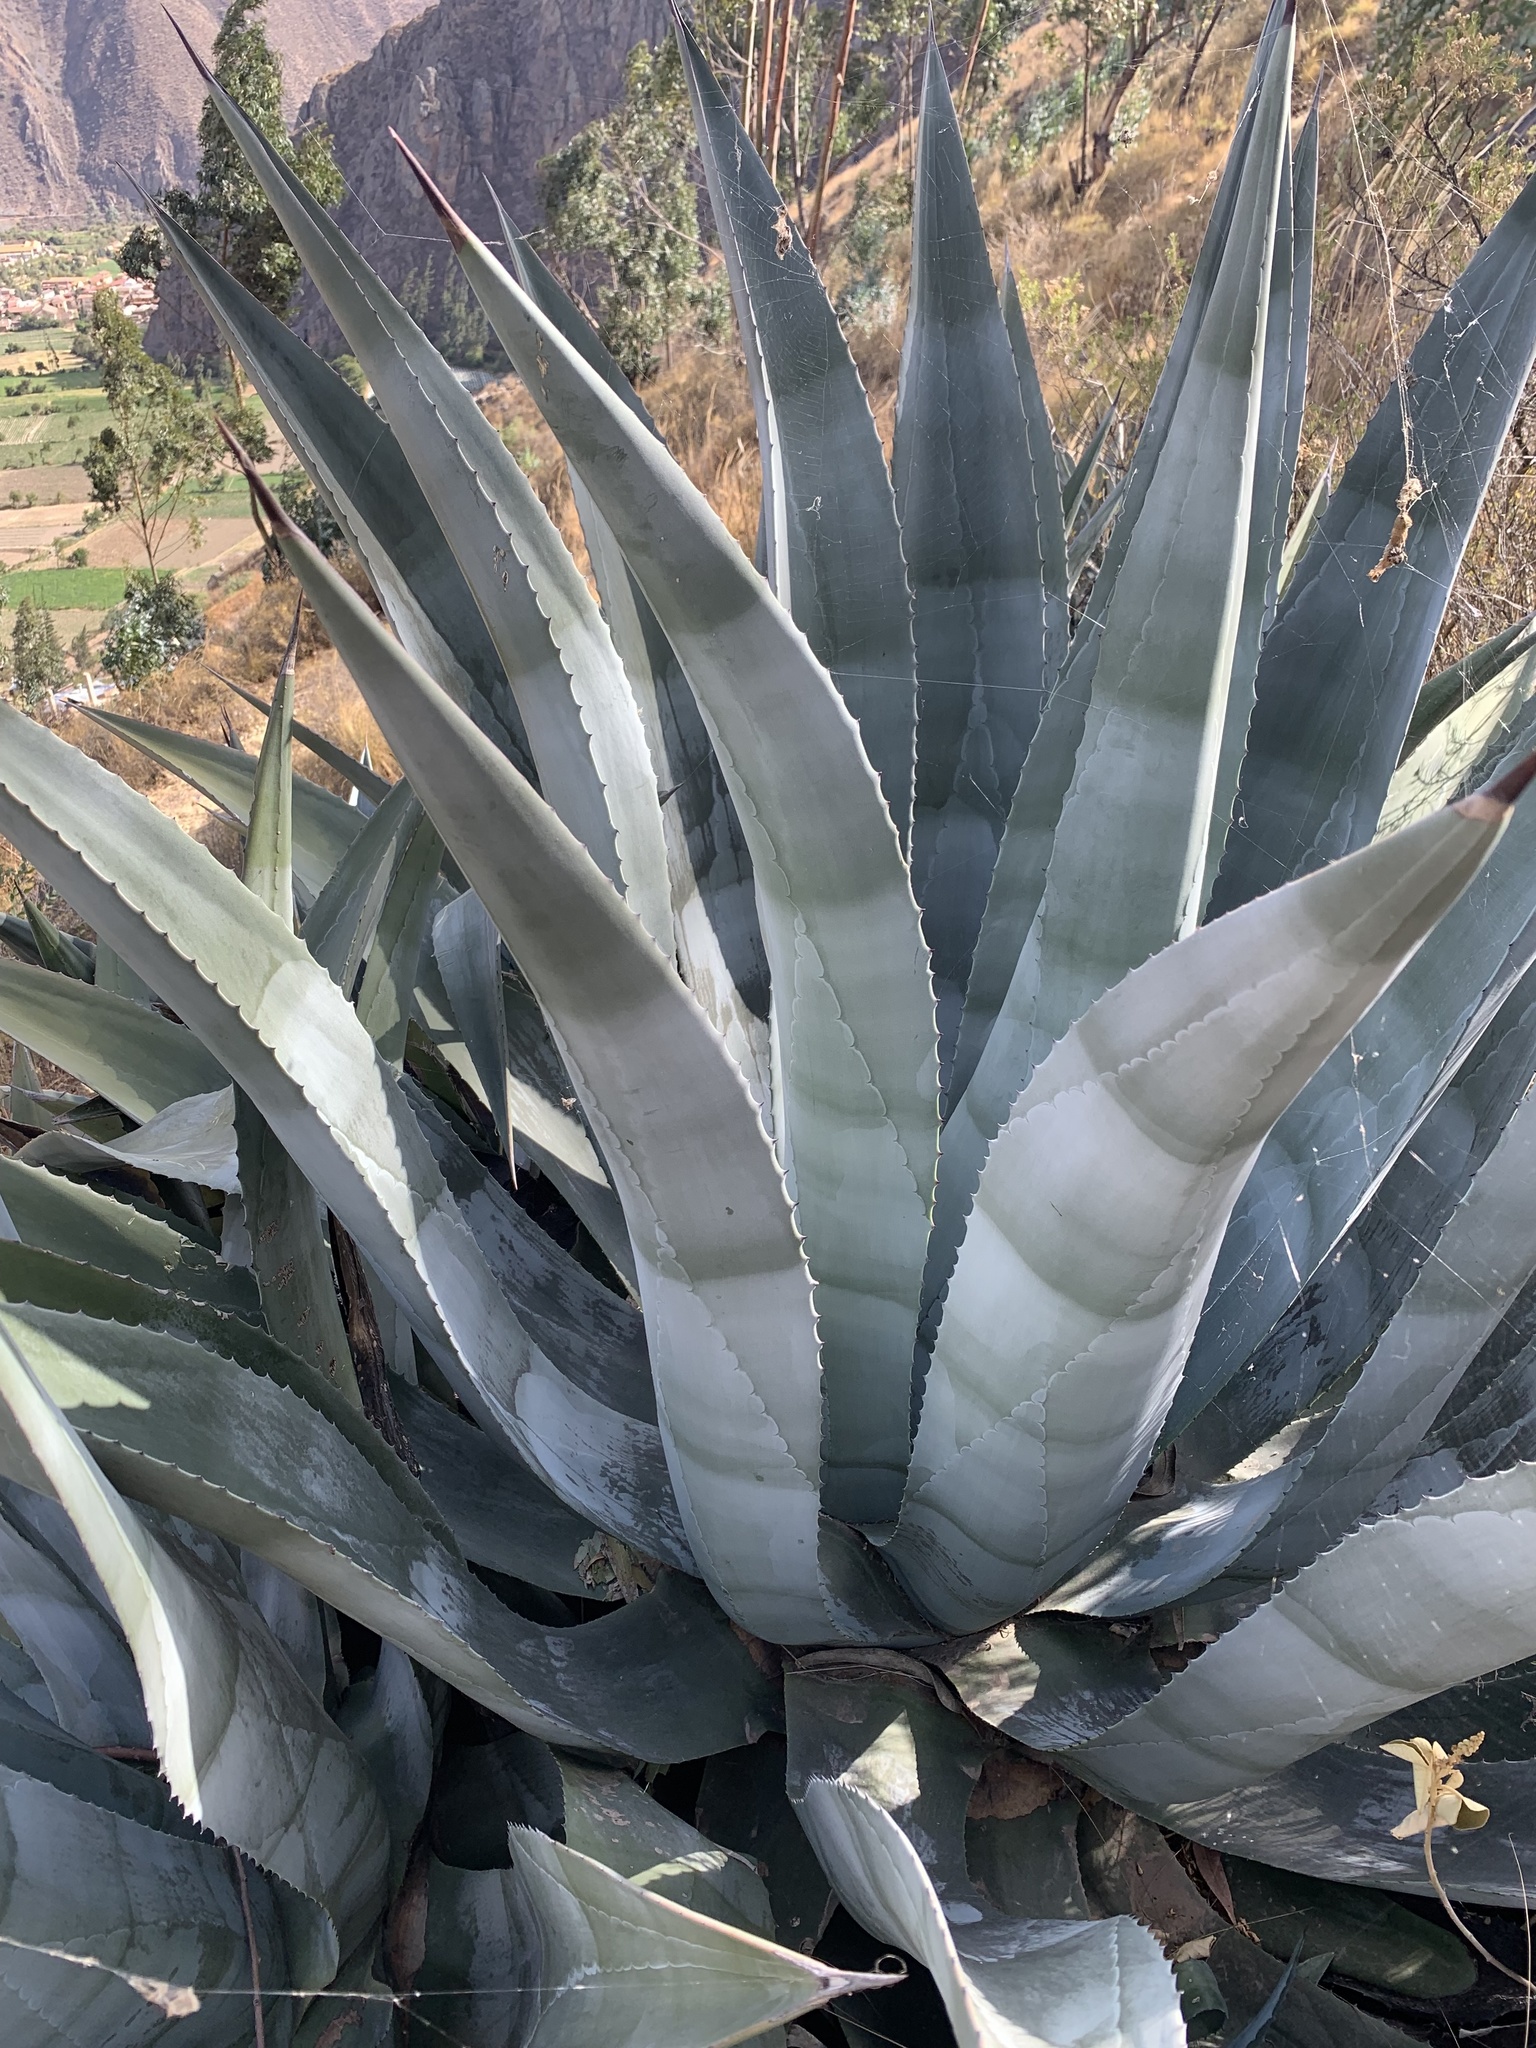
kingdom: Plantae
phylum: Tracheophyta
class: Liliopsida
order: Asparagales
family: Asparagaceae
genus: Agave
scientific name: Agave americana
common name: Centuryplant
